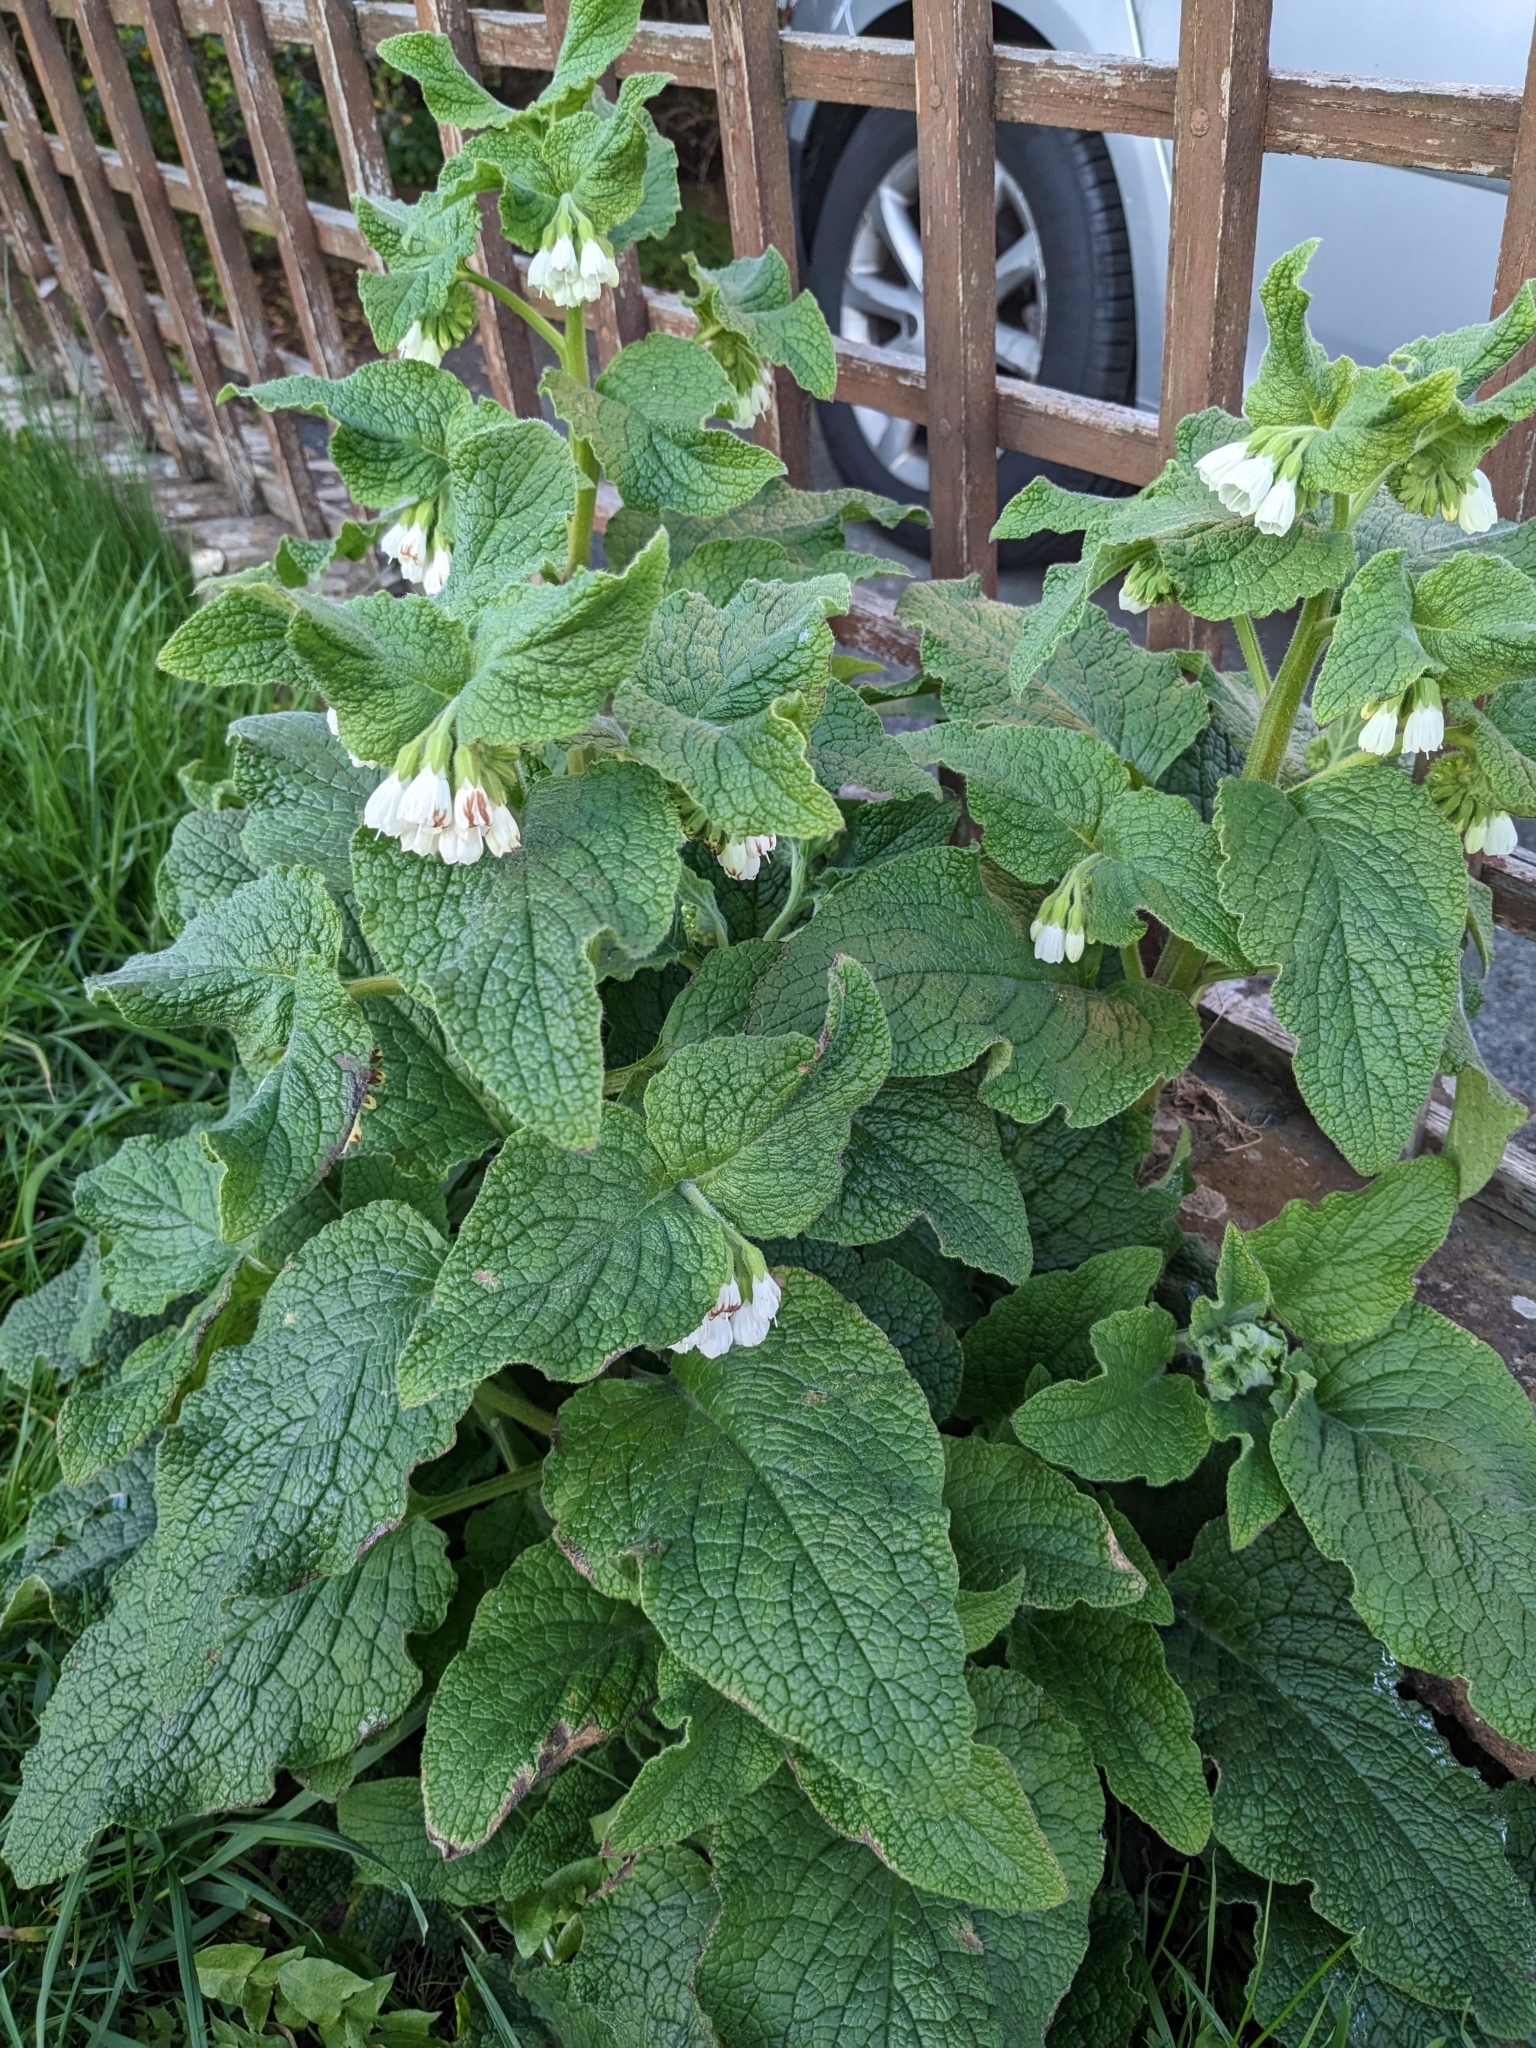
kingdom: Plantae
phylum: Tracheophyta
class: Magnoliopsida
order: Boraginales
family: Boraginaceae
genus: Symphytum
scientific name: Symphytum orientale
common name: White comfrey
